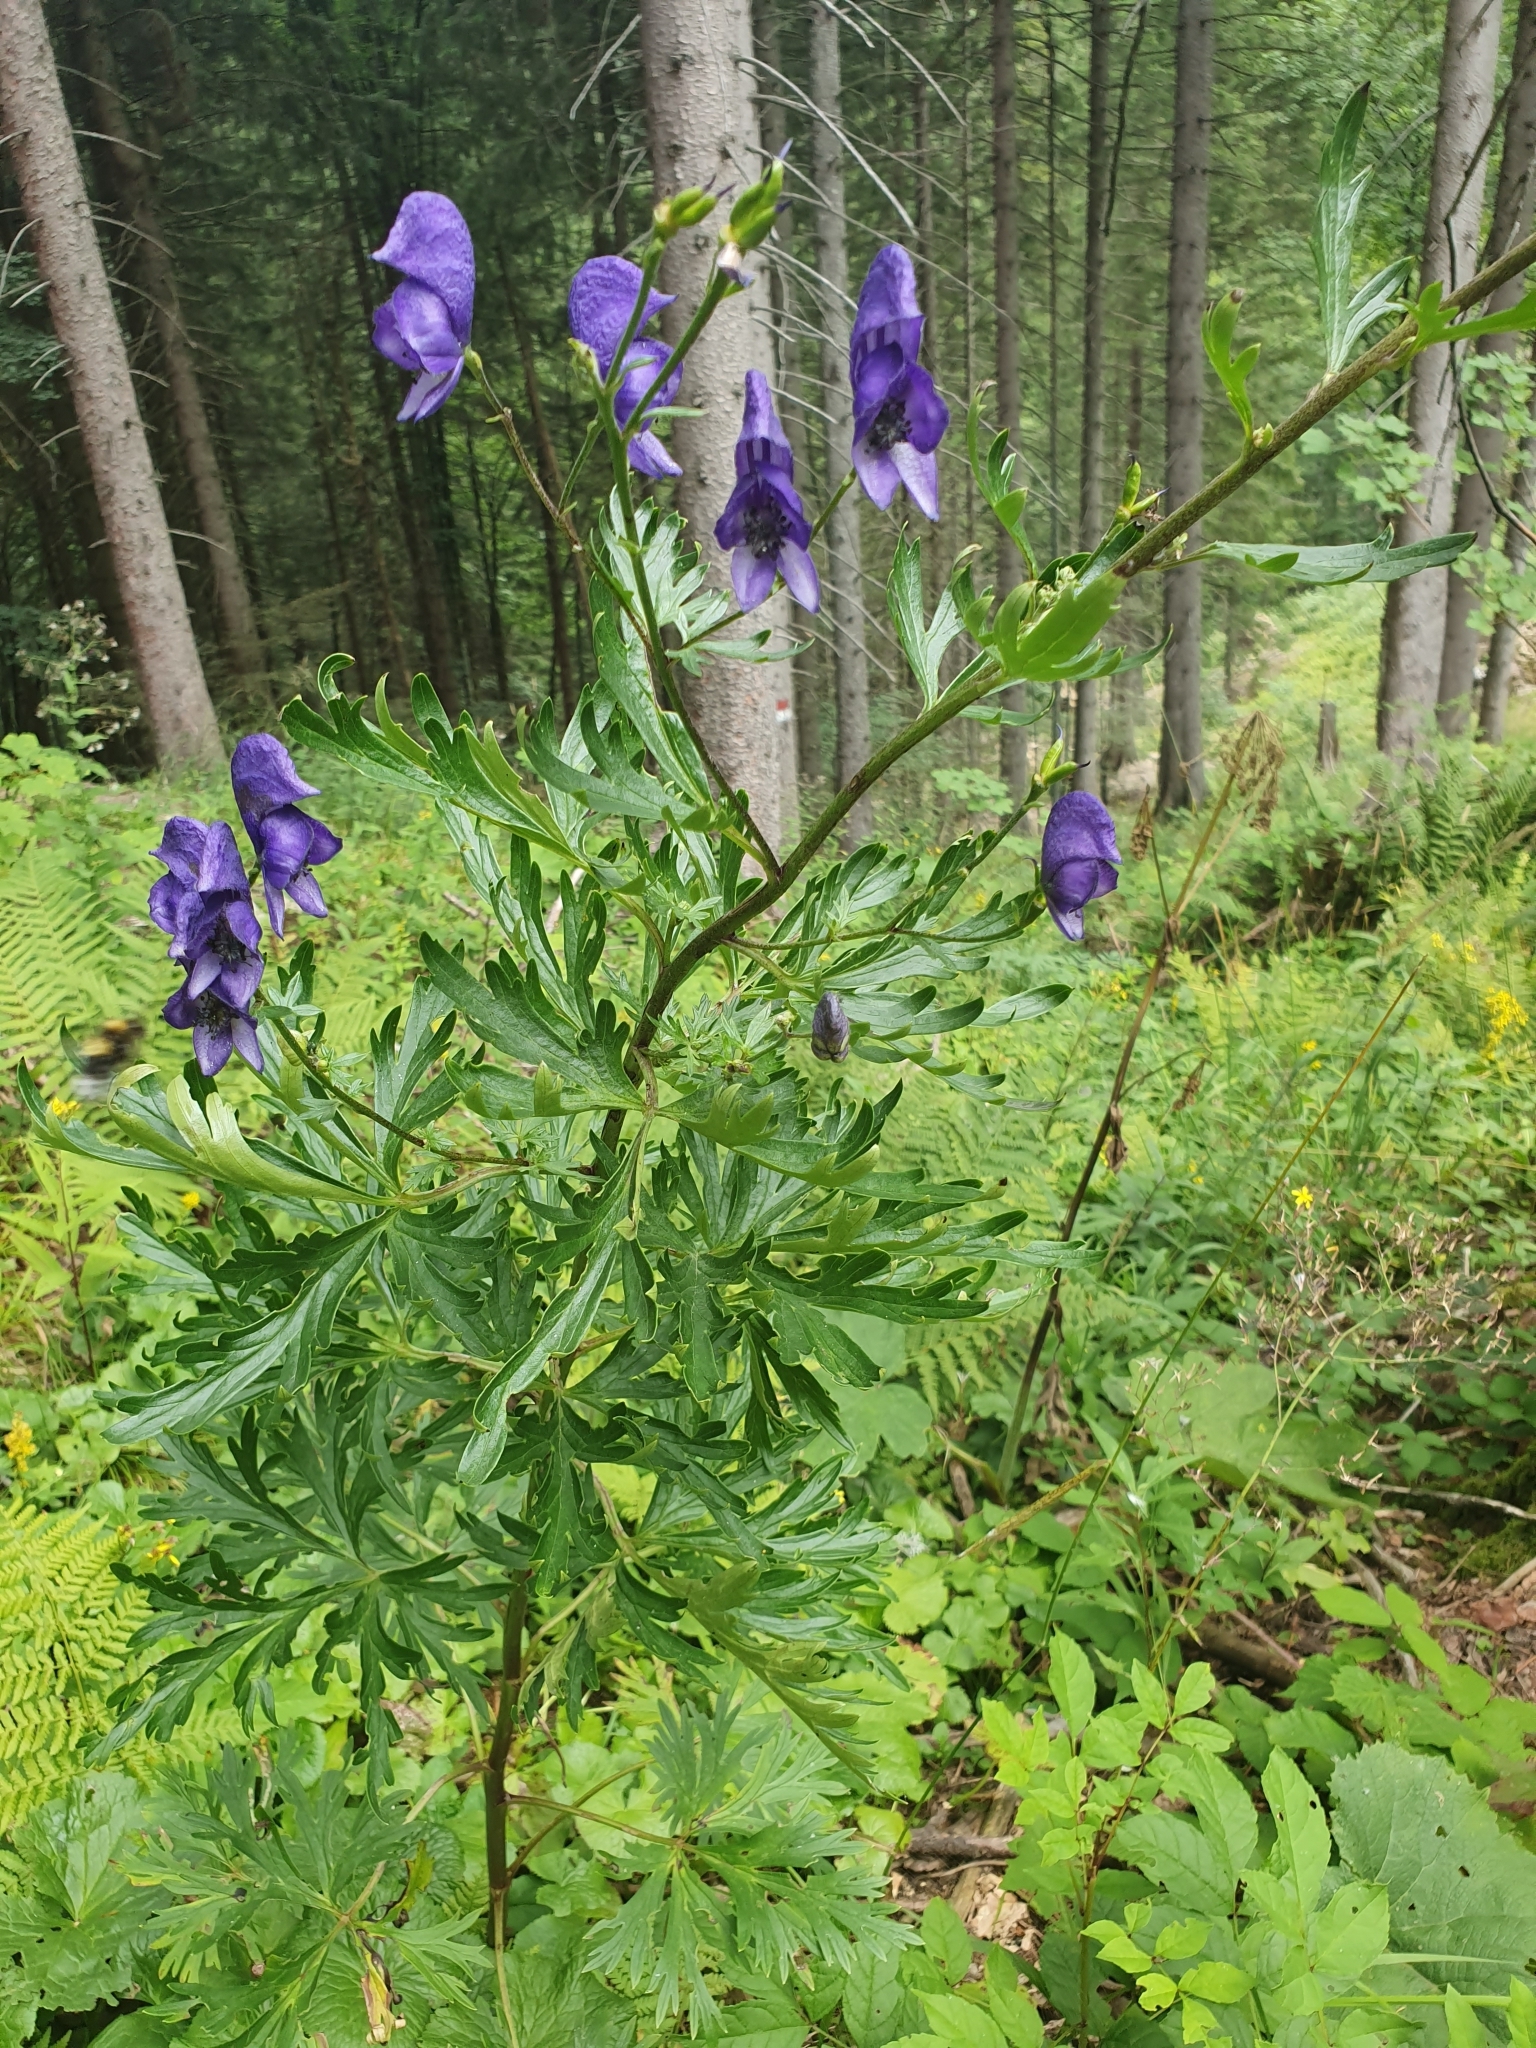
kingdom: Plantae
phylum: Tracheophyta
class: Magnoliopsida
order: Ranunculales
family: Ranunculaceae
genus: Aconitum
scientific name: Aconitum napellus
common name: Garden monkshood
